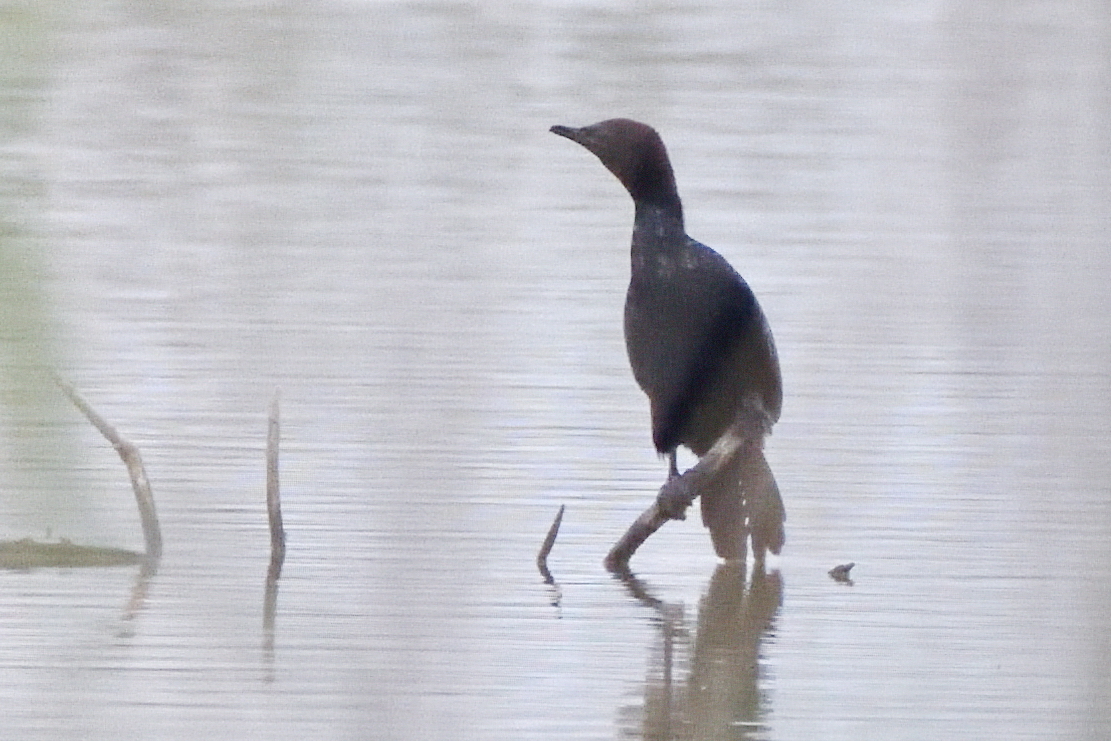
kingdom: Animalia
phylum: Chordata
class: Aves
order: Suliformes
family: Phalacrocoracidae
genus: Microcarbo
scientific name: Microcarbo pygmaeus
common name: Pygmy cormorant
